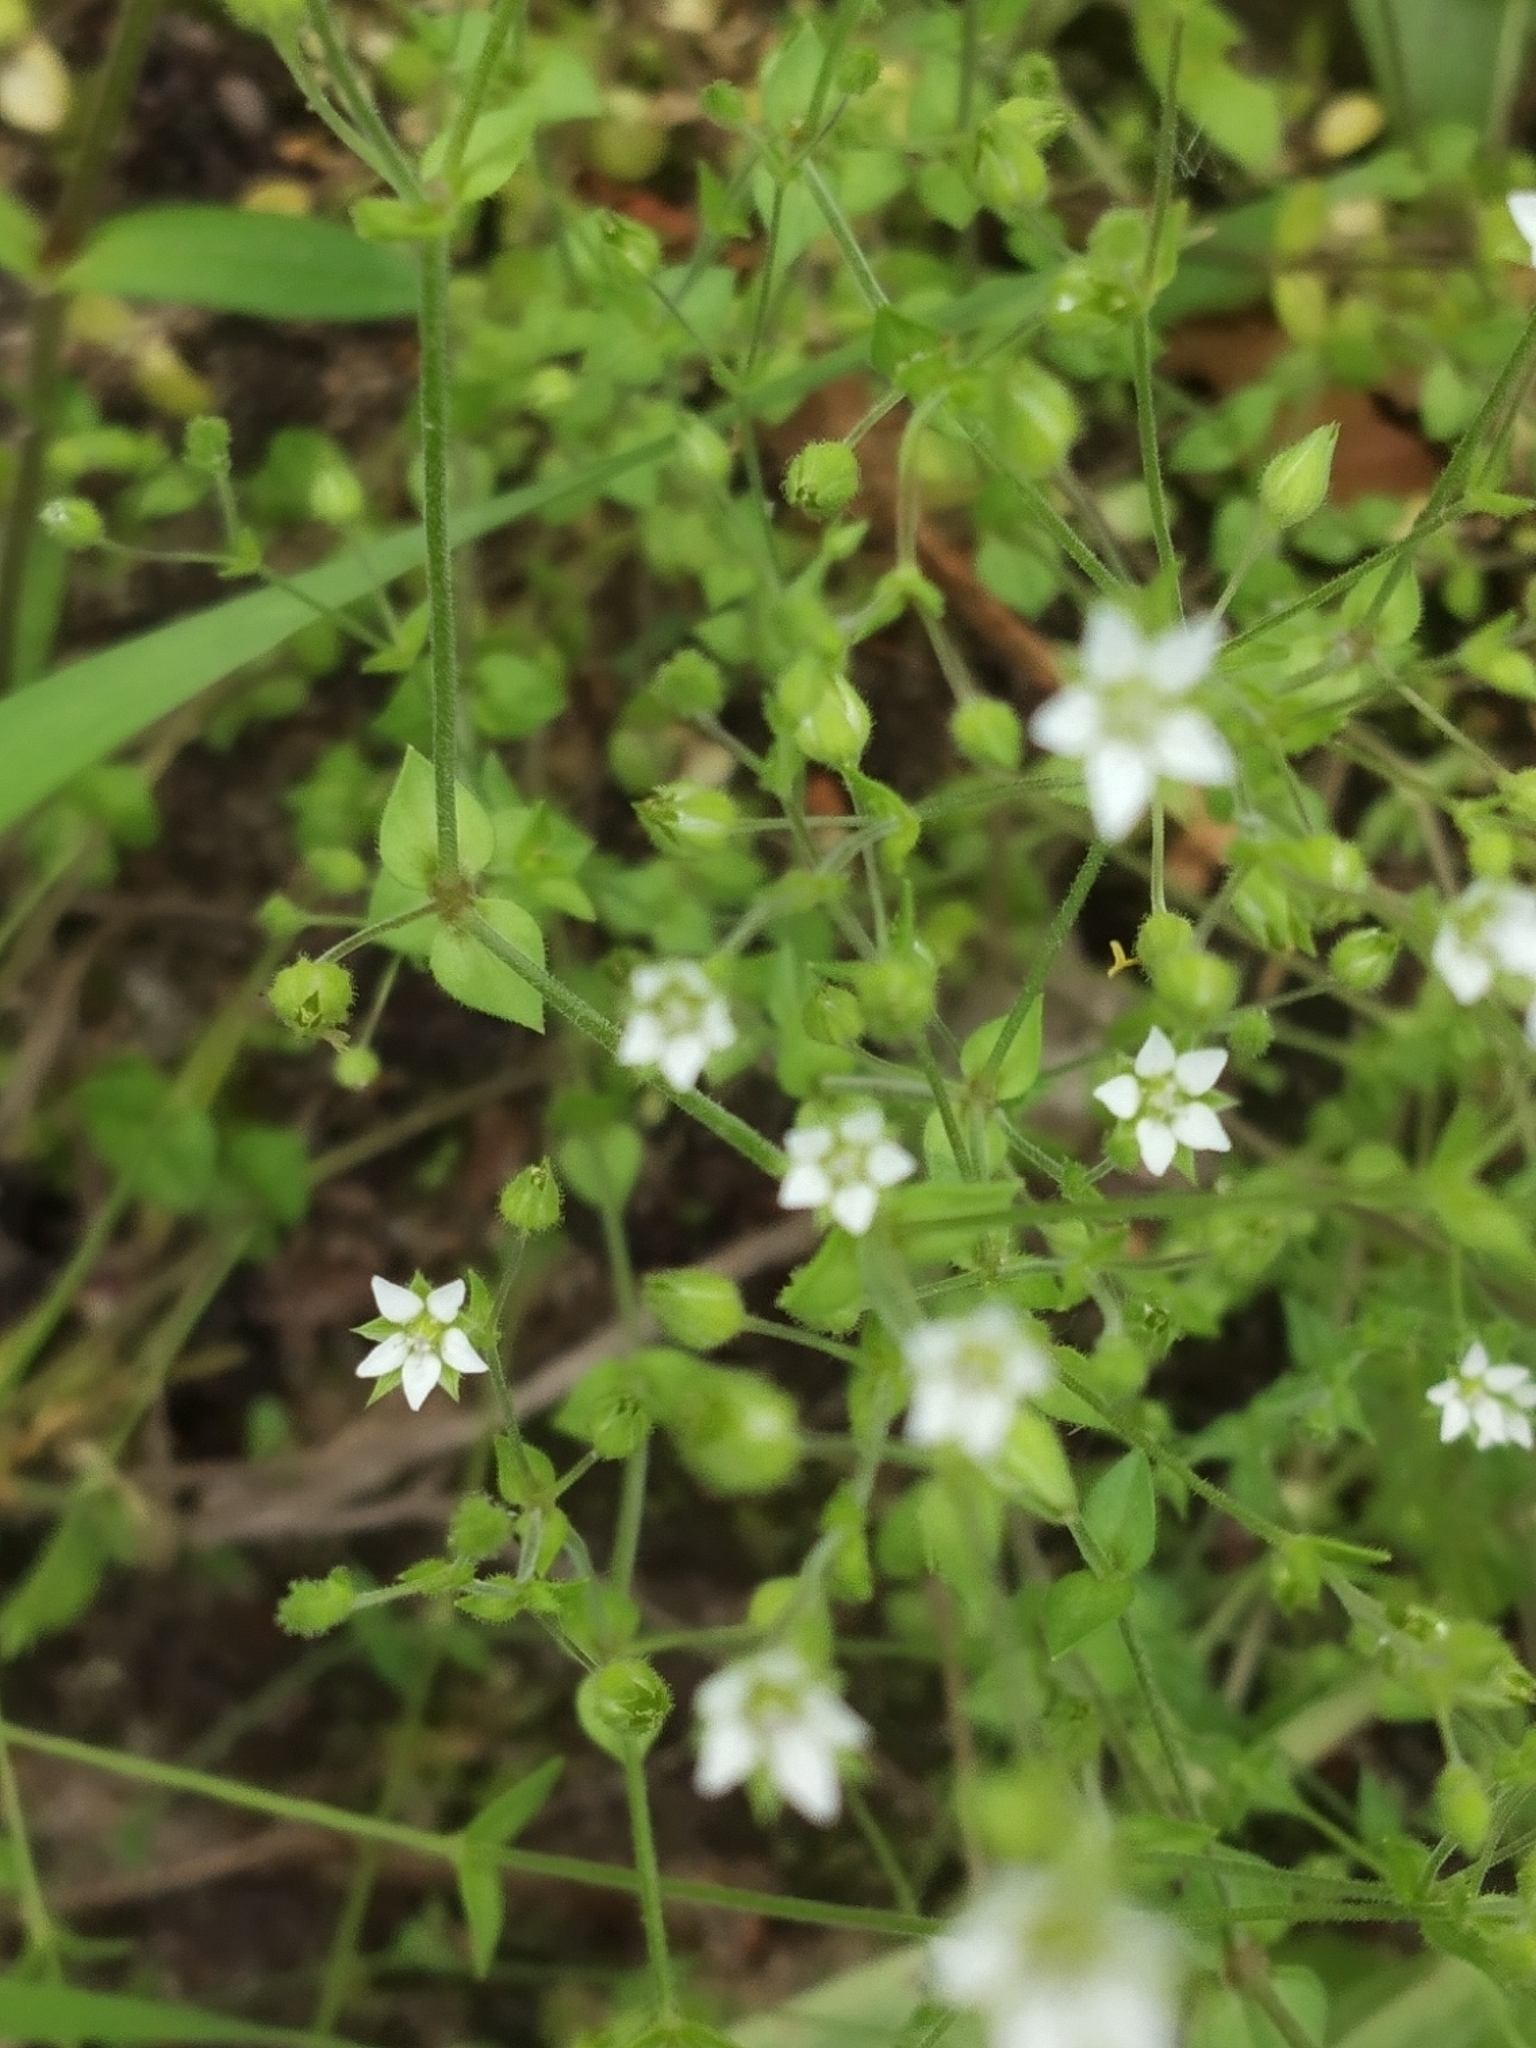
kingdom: Plantae
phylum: Tracheophyta
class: Magnoliopsida
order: Caryophyllales
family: Caryophyllaceae
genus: Arenaria
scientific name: Arenaria serpyllifolia
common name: Thyme-leaved sandwort
